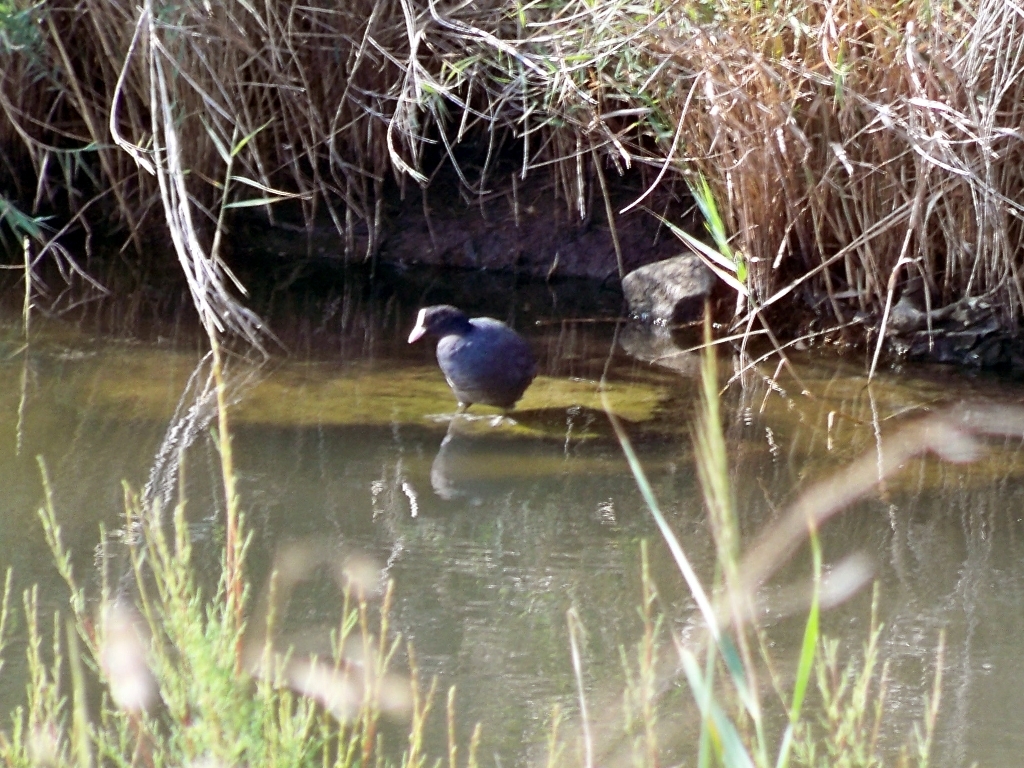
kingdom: Animalia
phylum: Chordata
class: Aves
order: Gruiformes
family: Rallidae
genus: Fulica
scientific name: Fulica atra
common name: Eurasian coot
